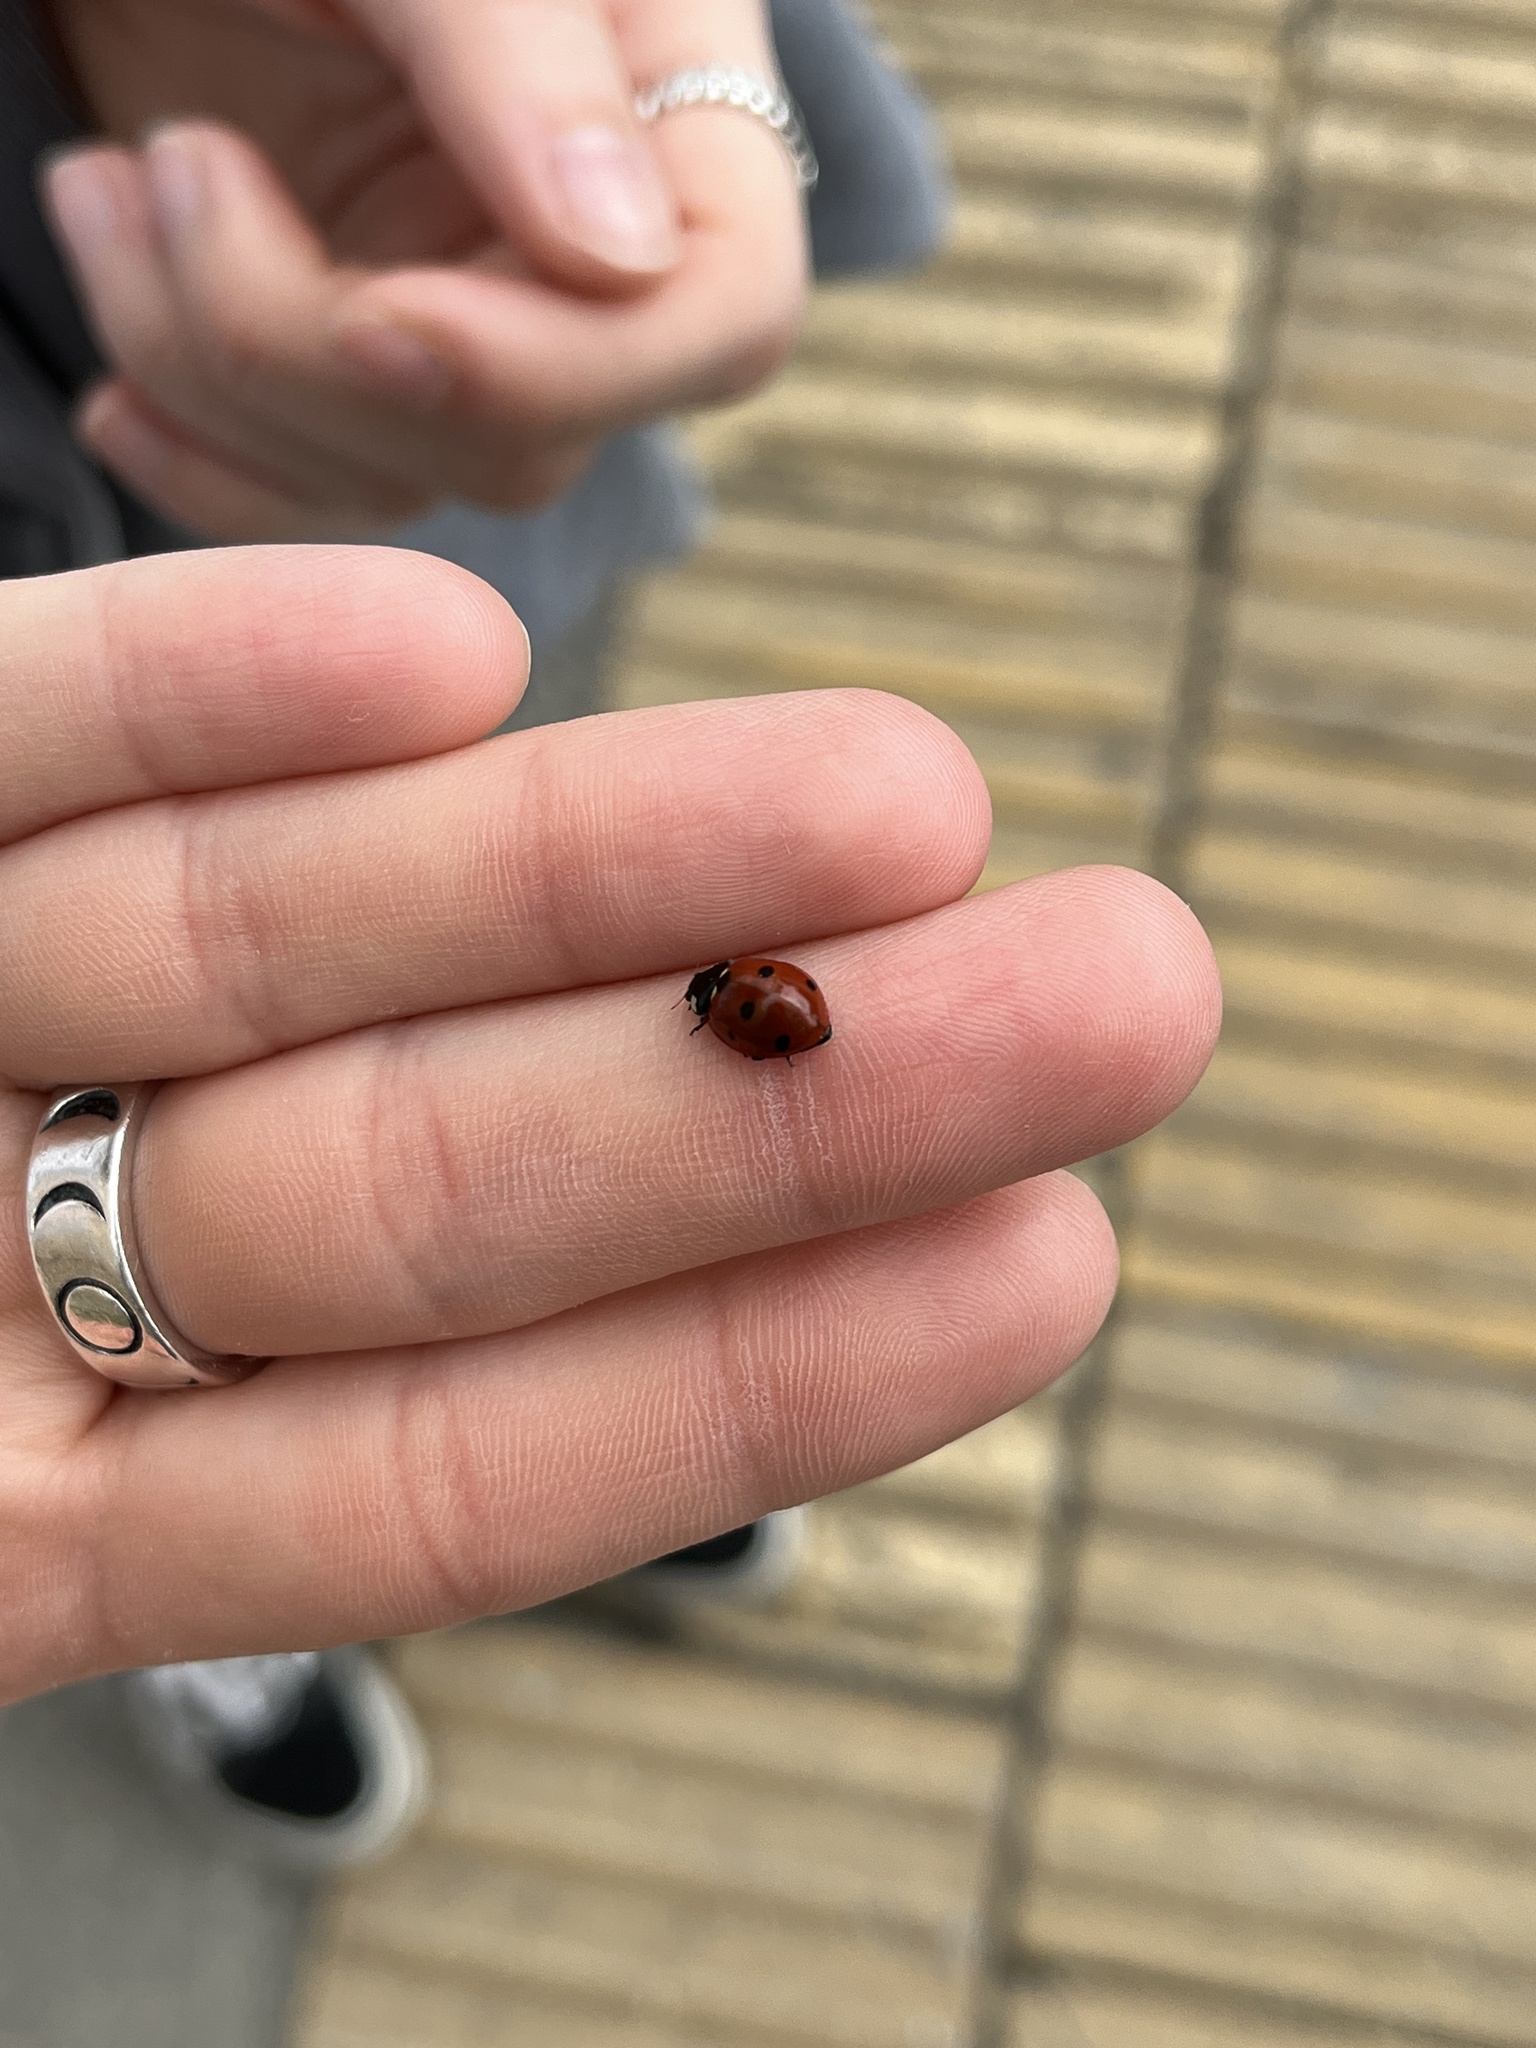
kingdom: Animalia
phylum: Arthropoda
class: Insecta
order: Coleoptera
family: Coccinellidae
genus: Coccinella
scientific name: Coccinella septempunctata
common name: Sevenspotted lady beetle
